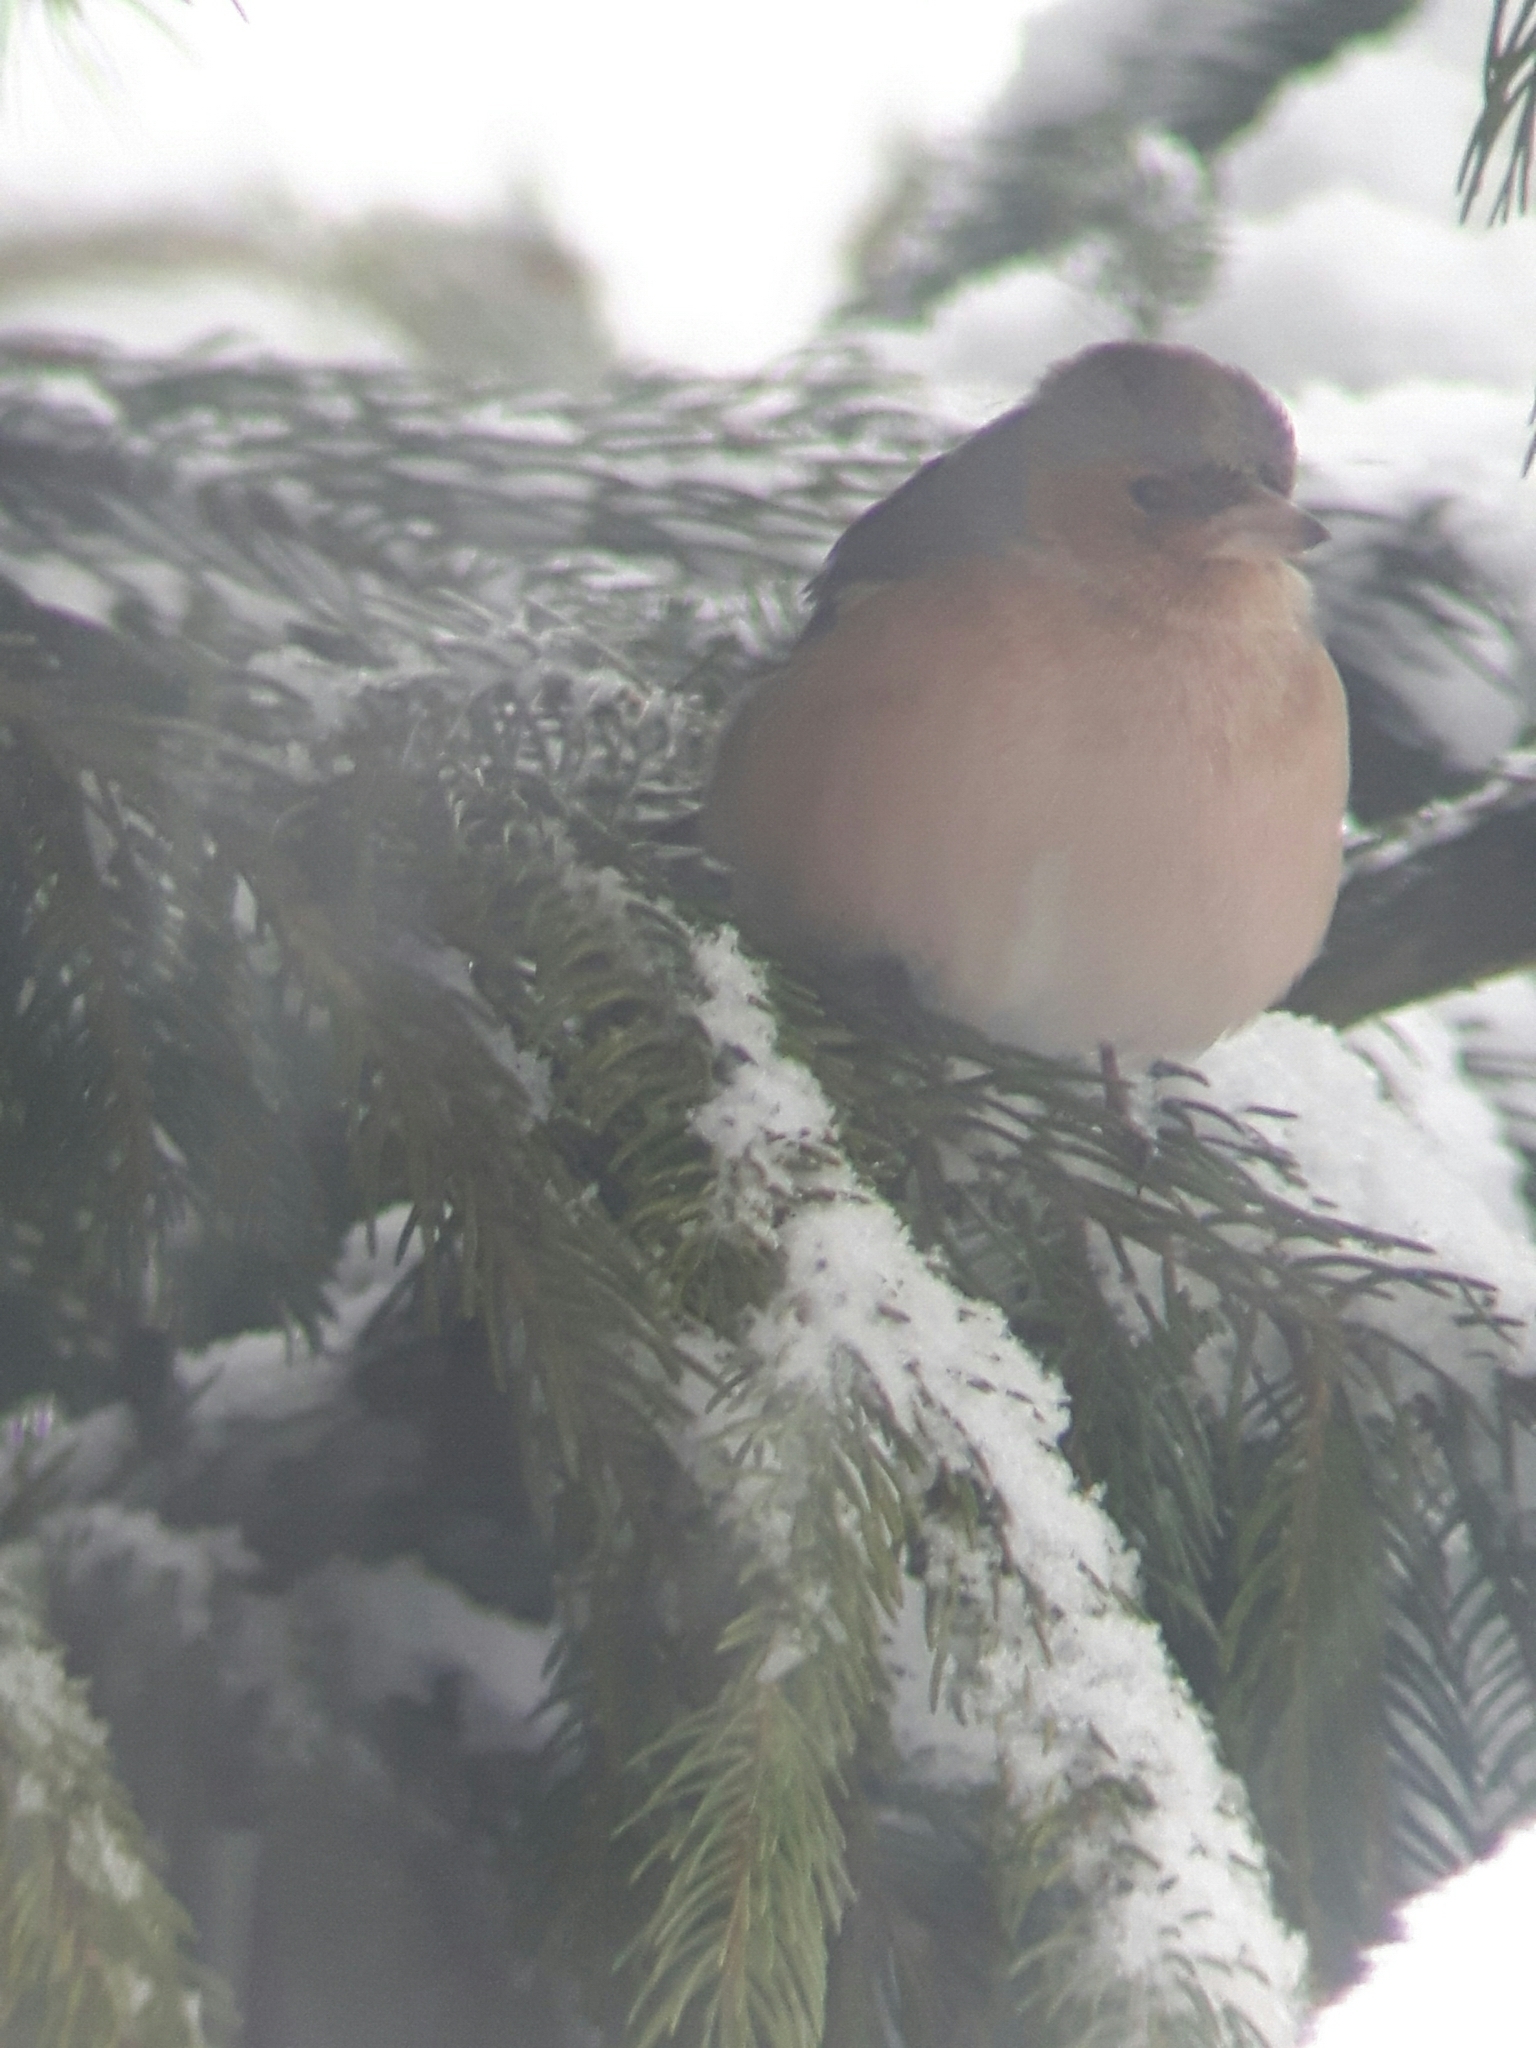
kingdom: Animalia
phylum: Chordata
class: Aves
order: Passeriformes
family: Fringillidae
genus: Fringilla
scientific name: Fringilla coelebs
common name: Common chaffinch
